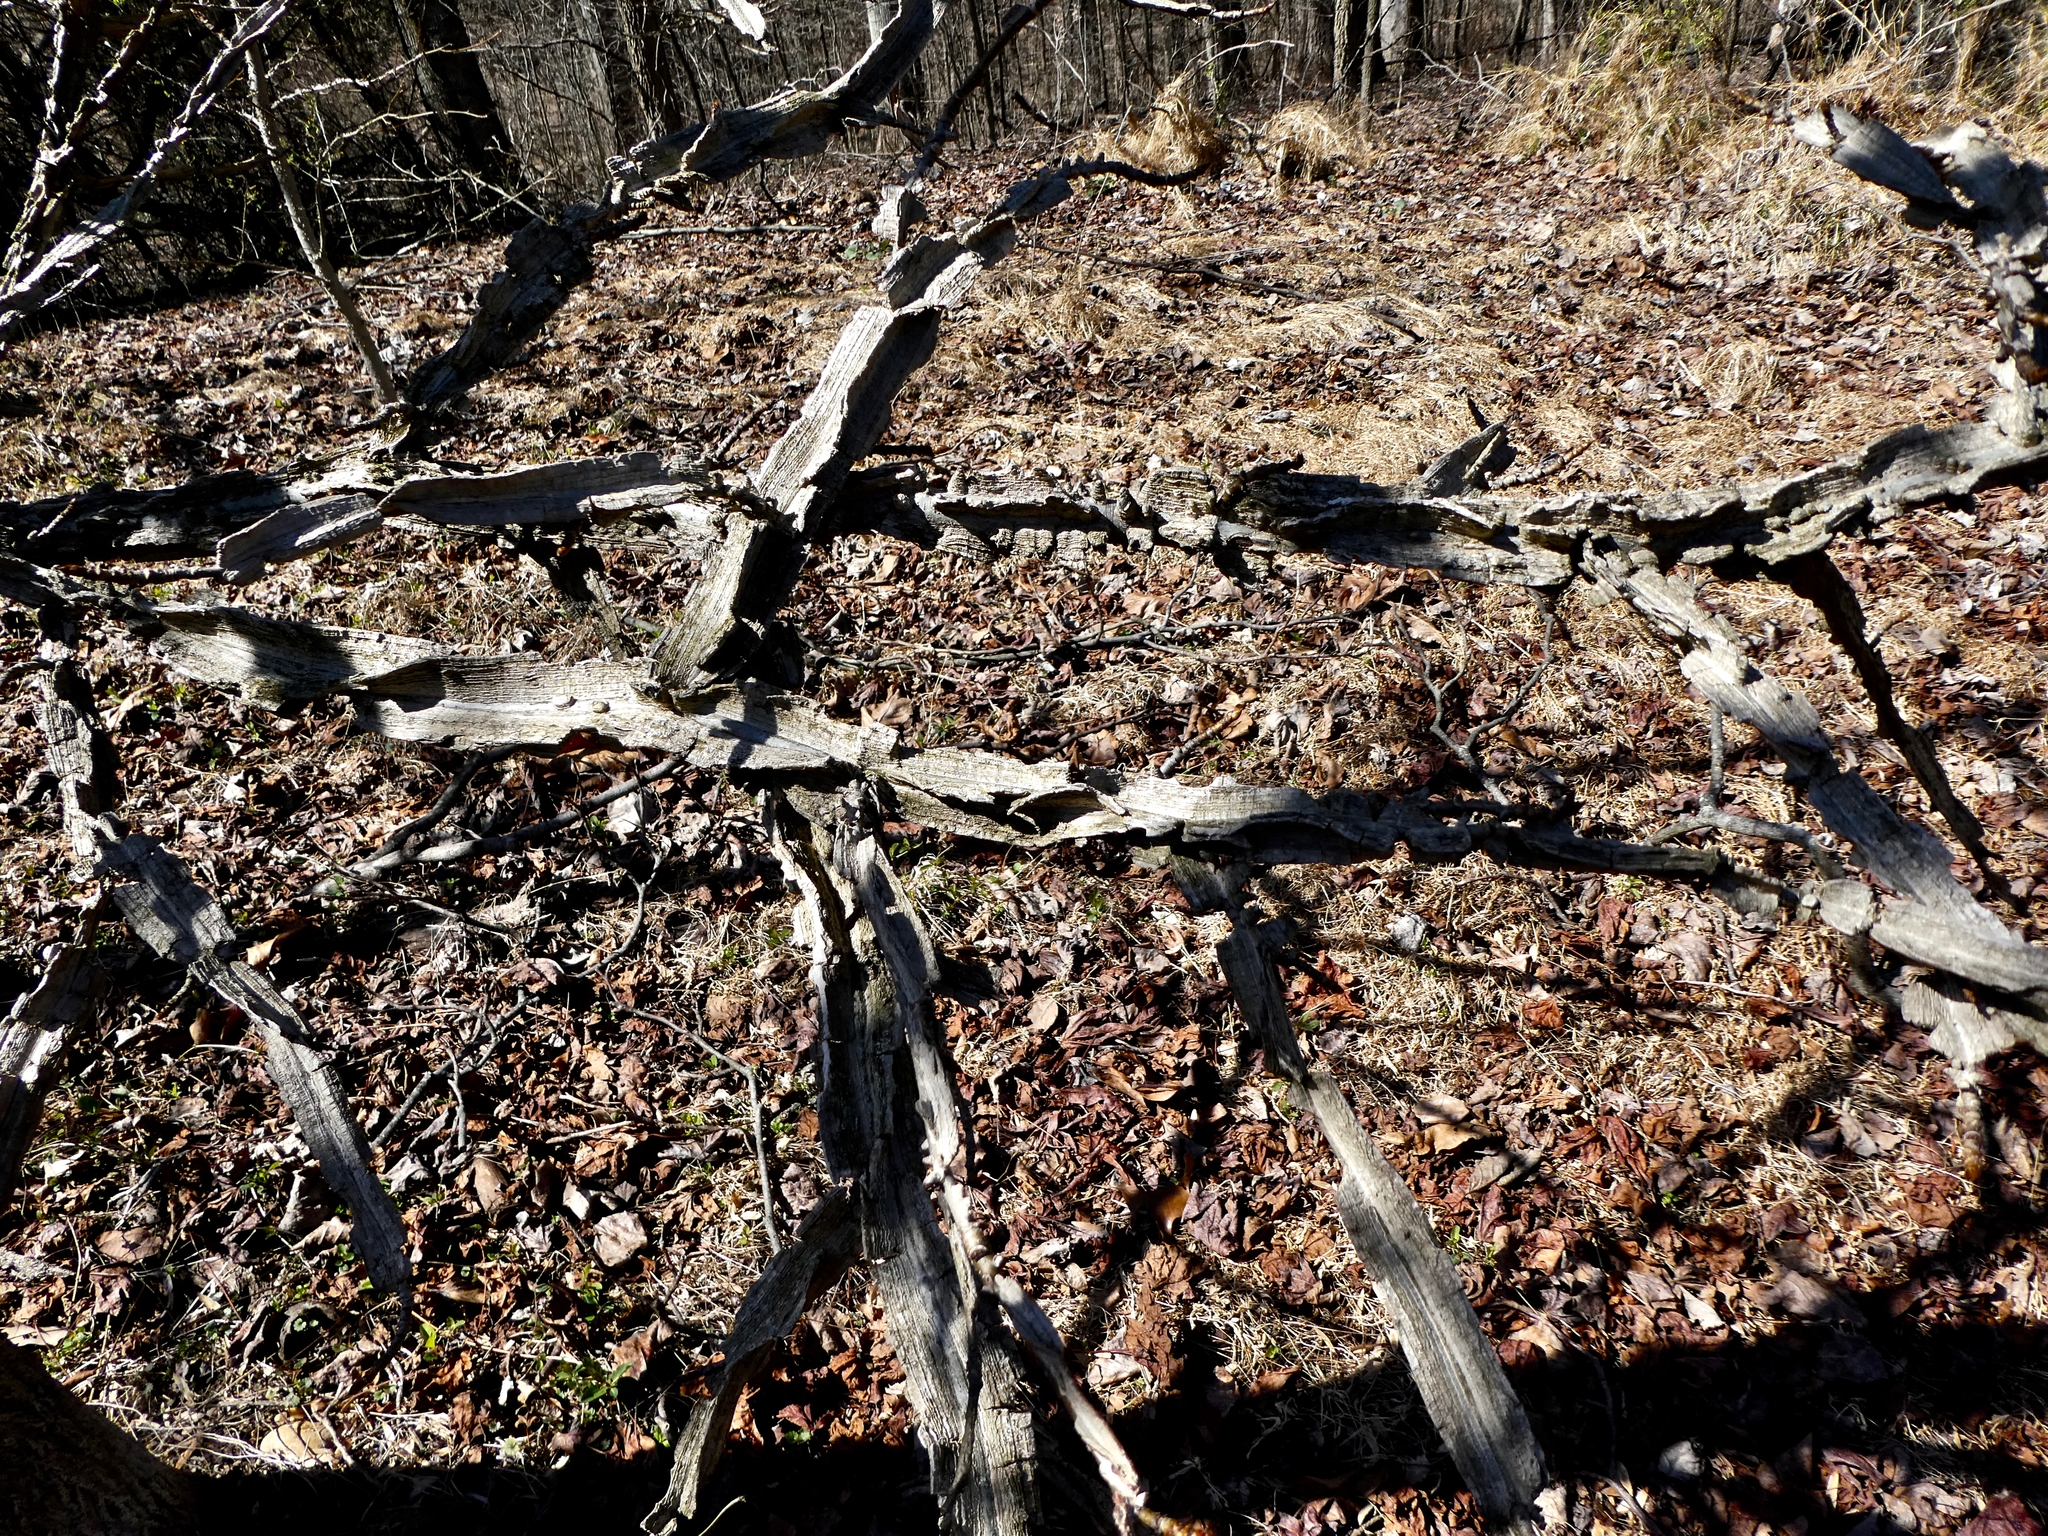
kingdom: Plantae
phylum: Tracheophyta
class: Magnoliopsida
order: Saxifragales
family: Altingiaceae
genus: Liquidambar
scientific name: Liquidambar styraciflua
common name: Sweet gum
